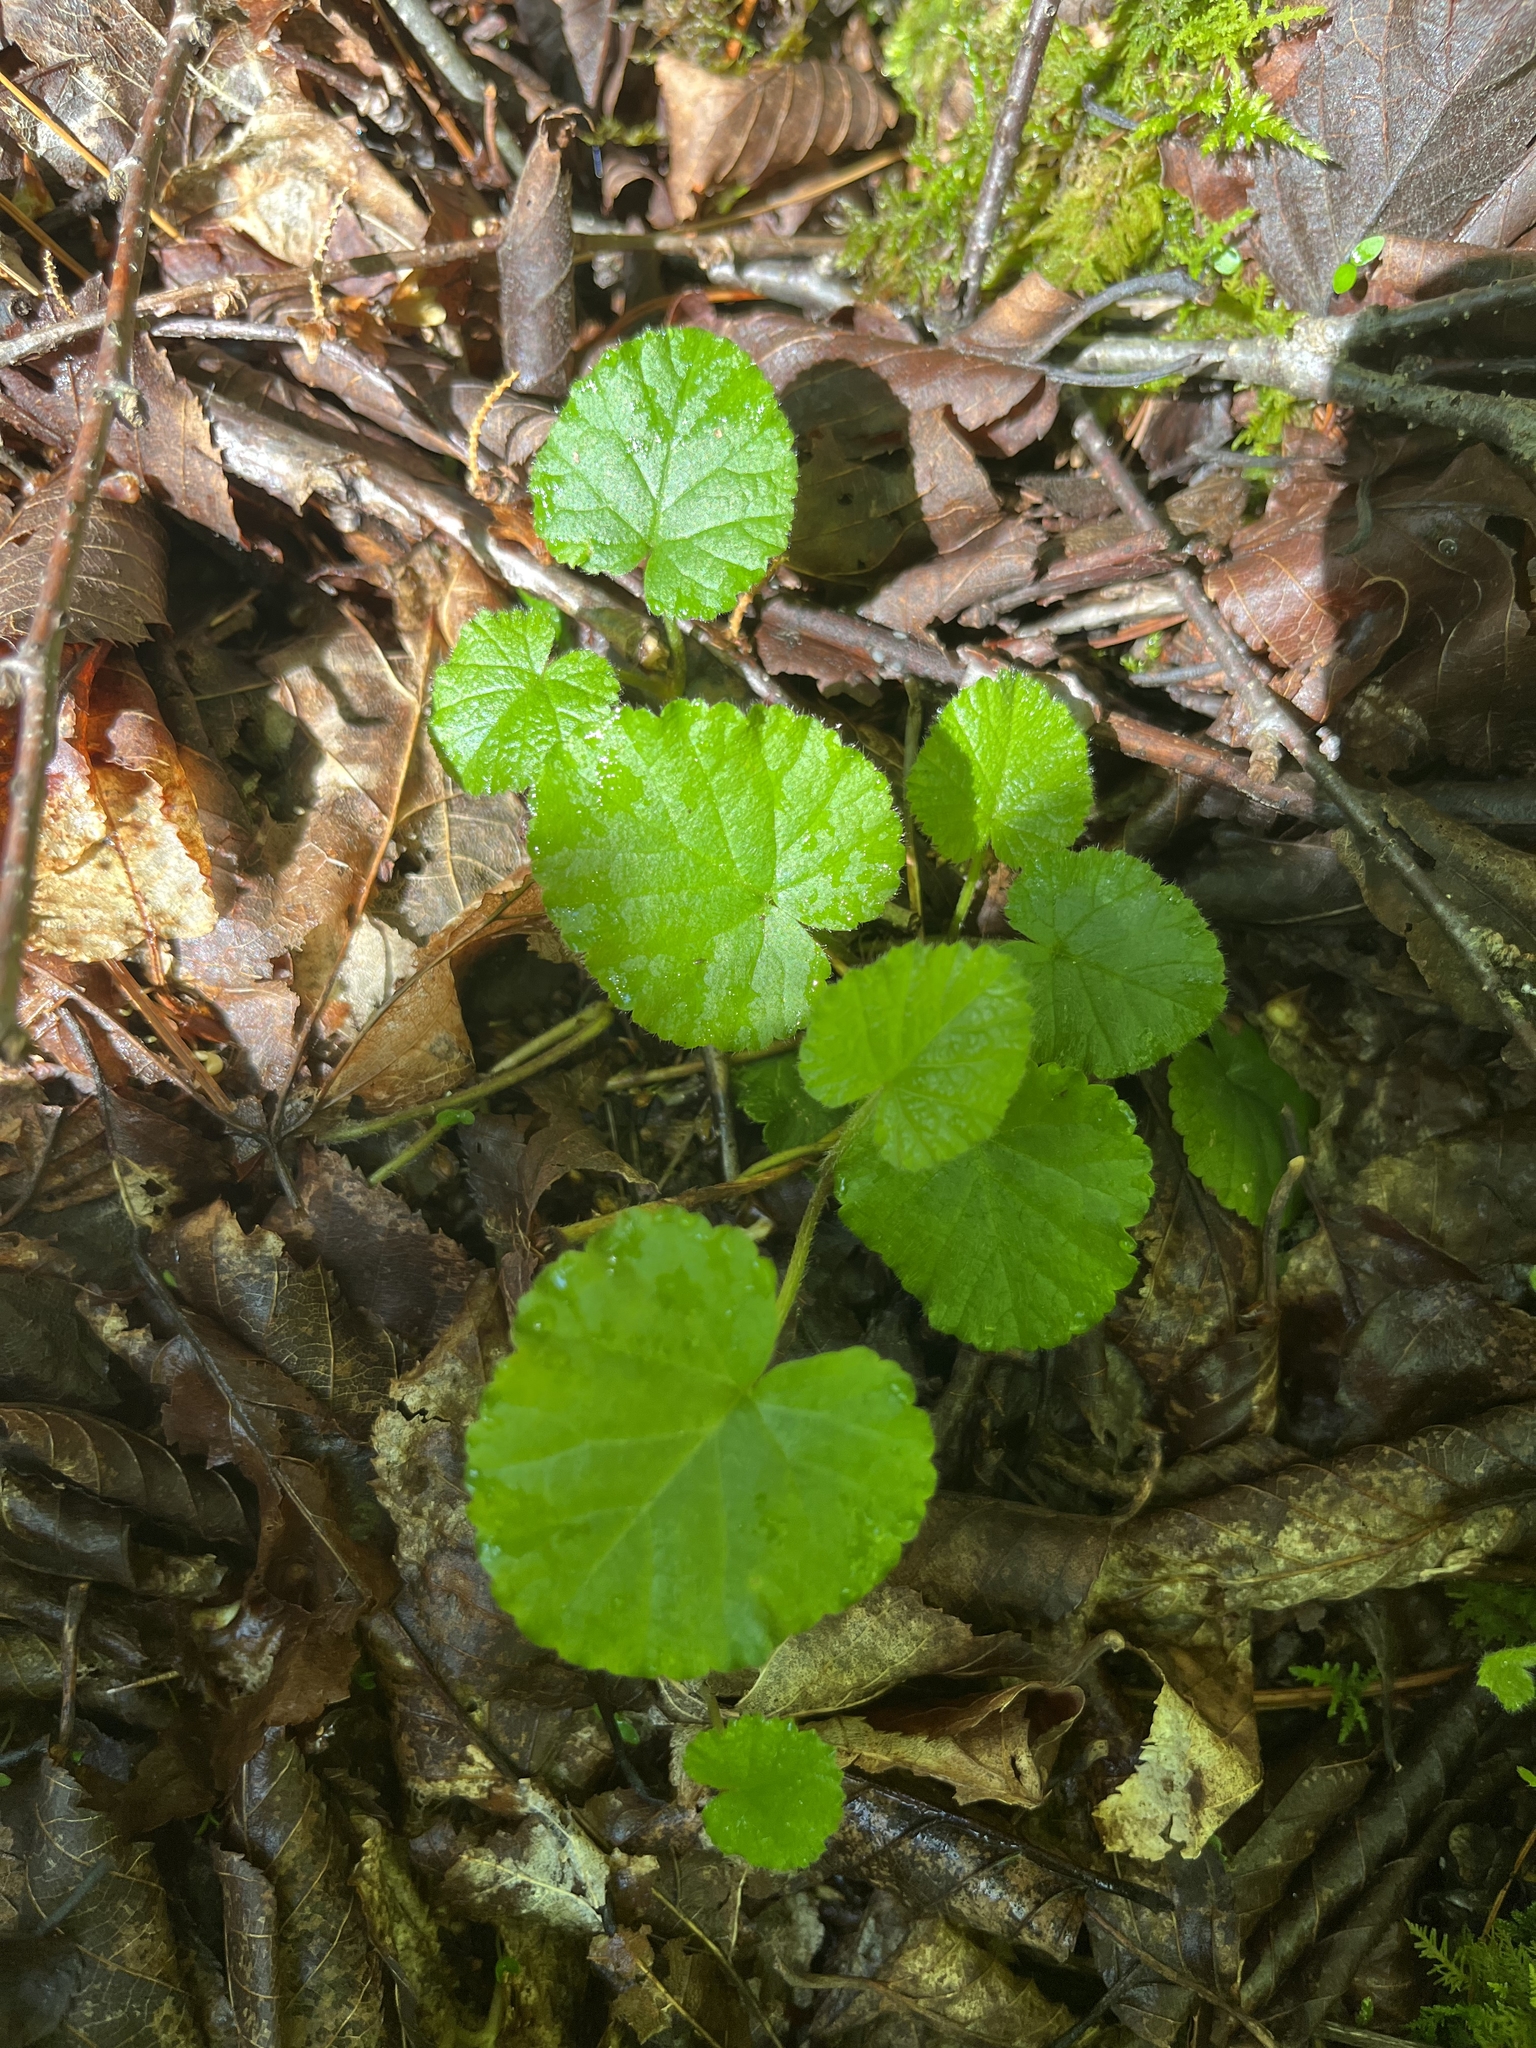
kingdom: Plantae
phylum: Tracheophyta
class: Magnoliopsida
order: Rosales
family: Rosaceae
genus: Dalibarda
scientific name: Dalibarda repens
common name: Dewdrop
